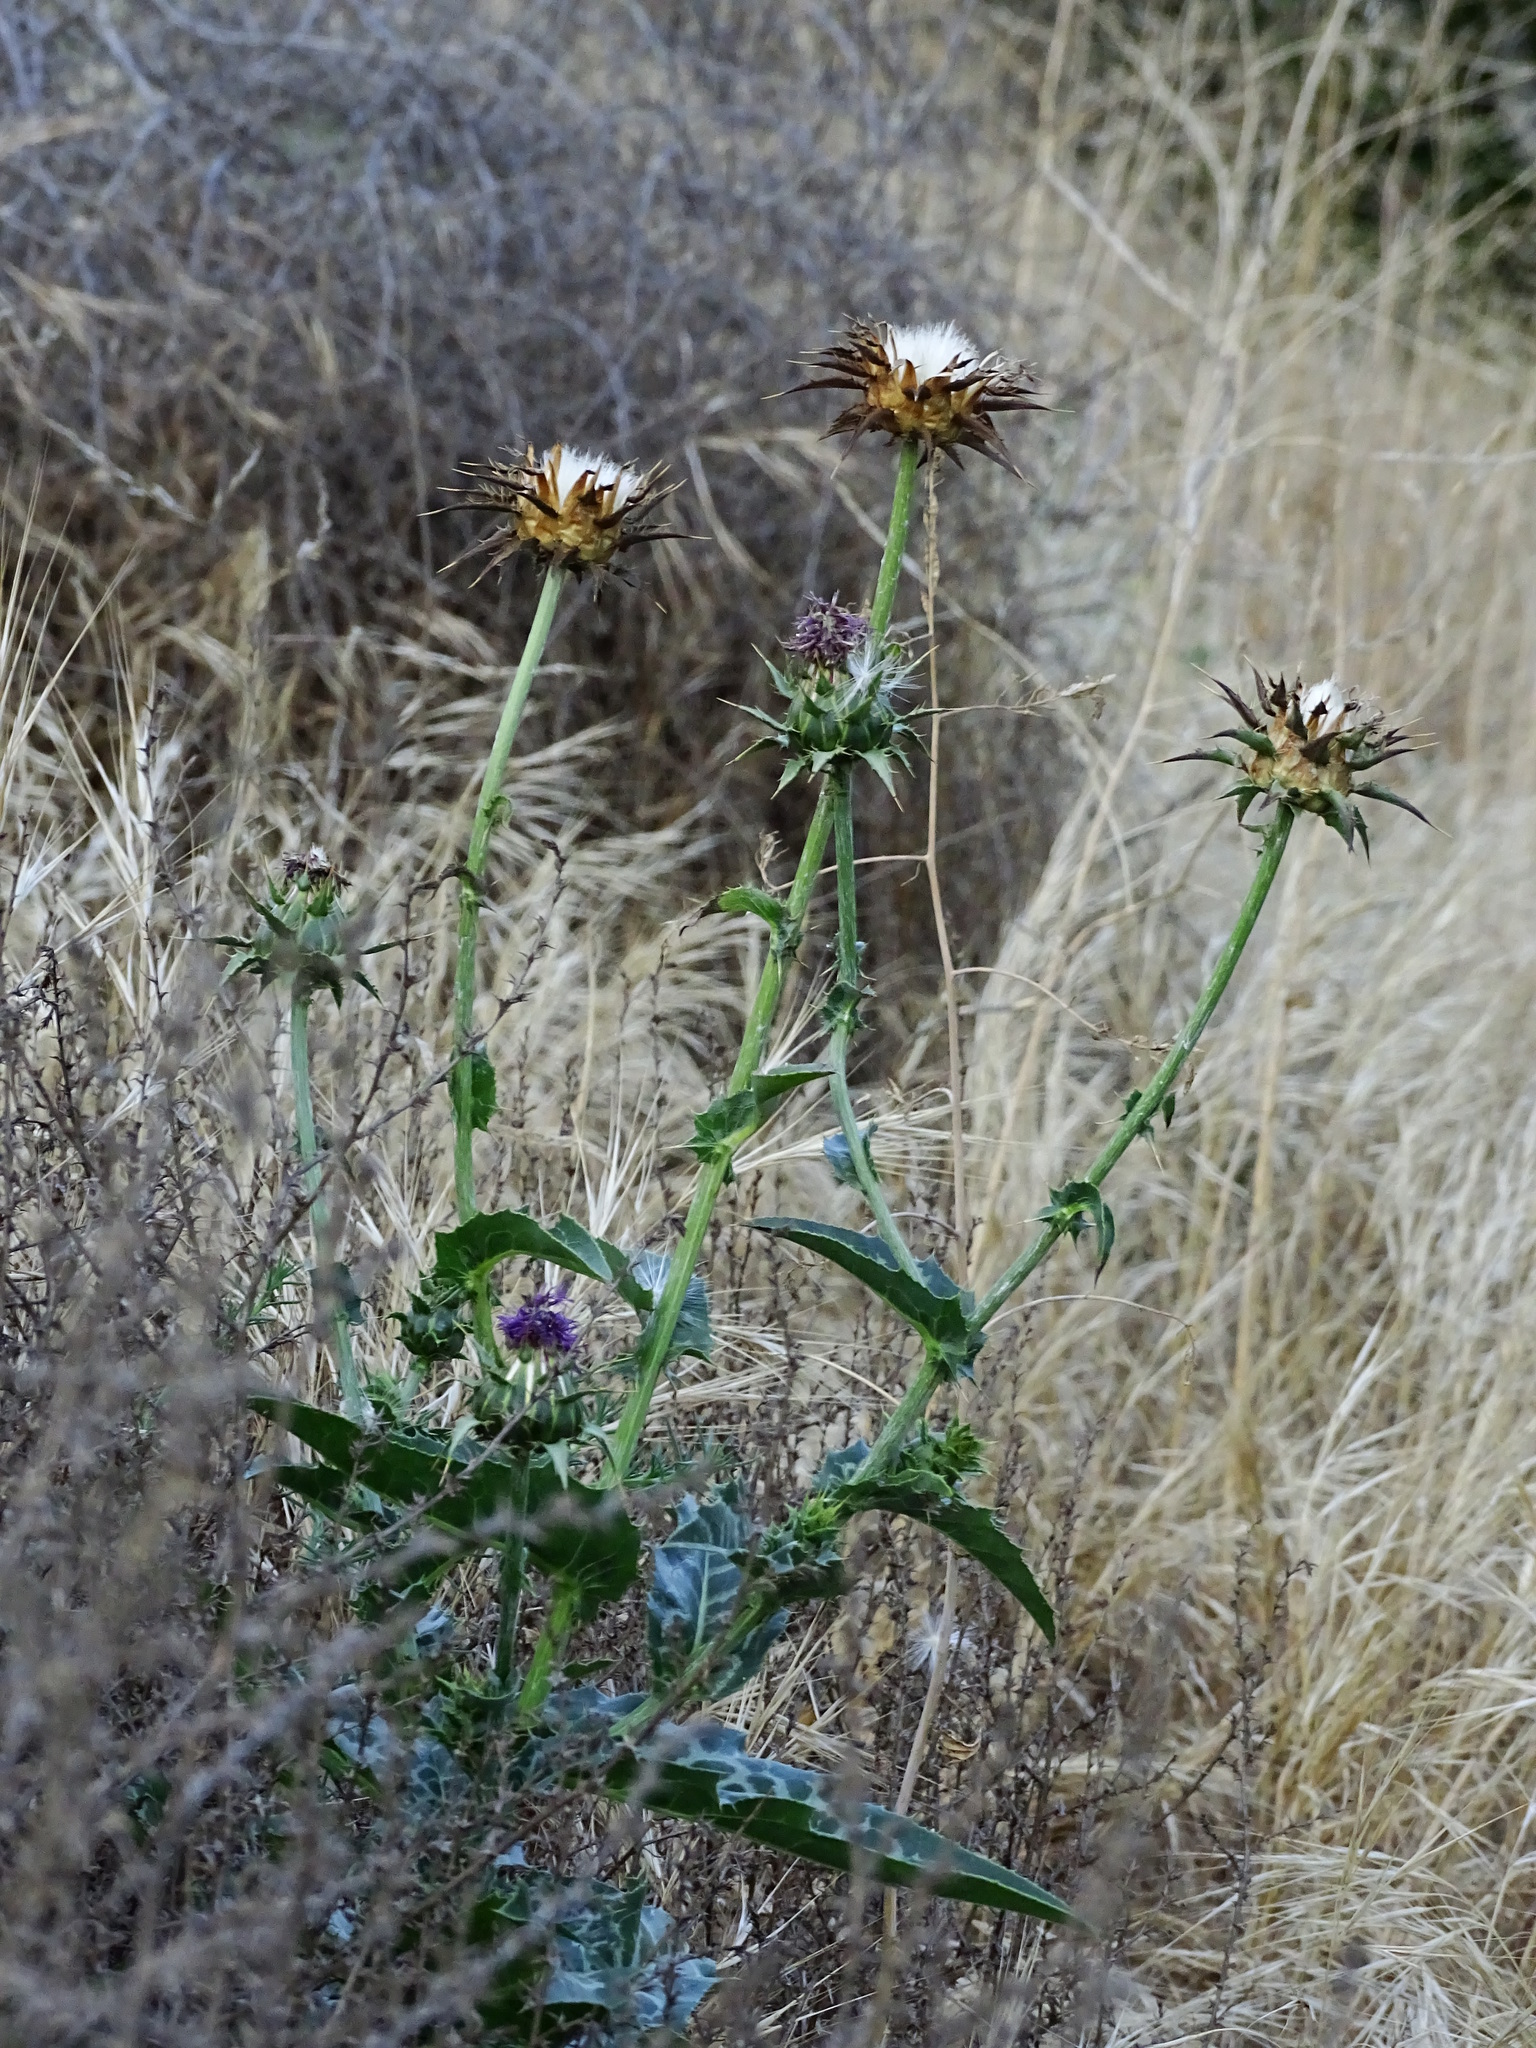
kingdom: Plantae
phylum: Tracheophyta
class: Magnoliopsida
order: Asterales
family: Asteraceae
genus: Silybum
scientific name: Silybum marianum
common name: Milk thistle
